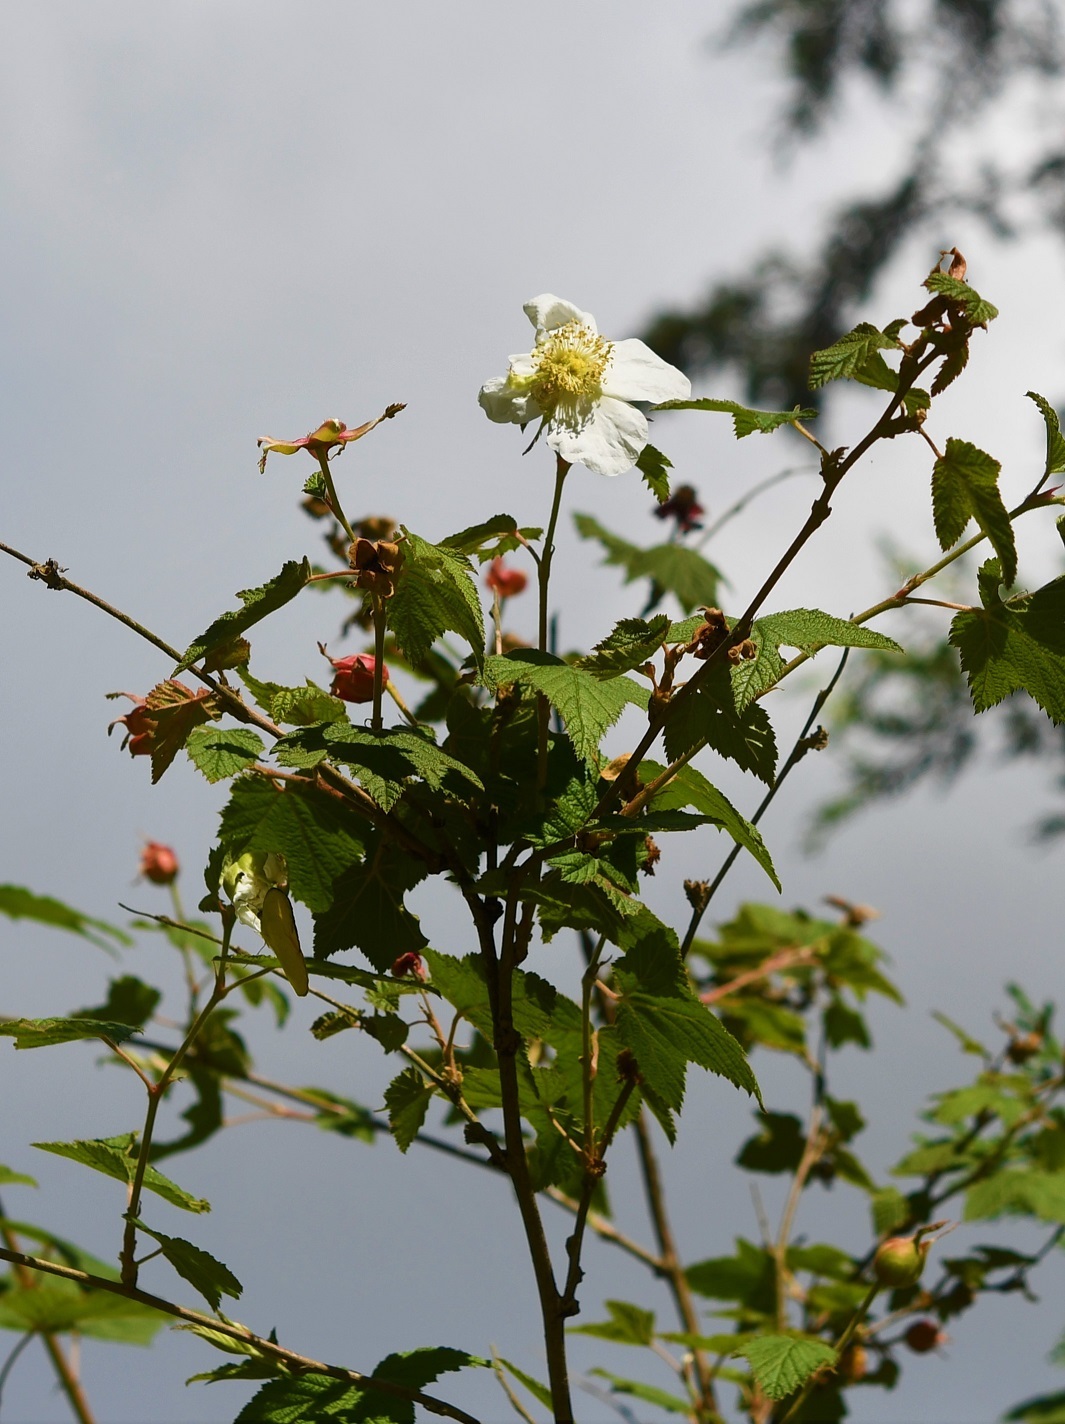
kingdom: Plantae
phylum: Tracheophyta
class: Magnoliopsida
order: Rosales
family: Rosaceae
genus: Rubus
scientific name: Rubus trilobus
